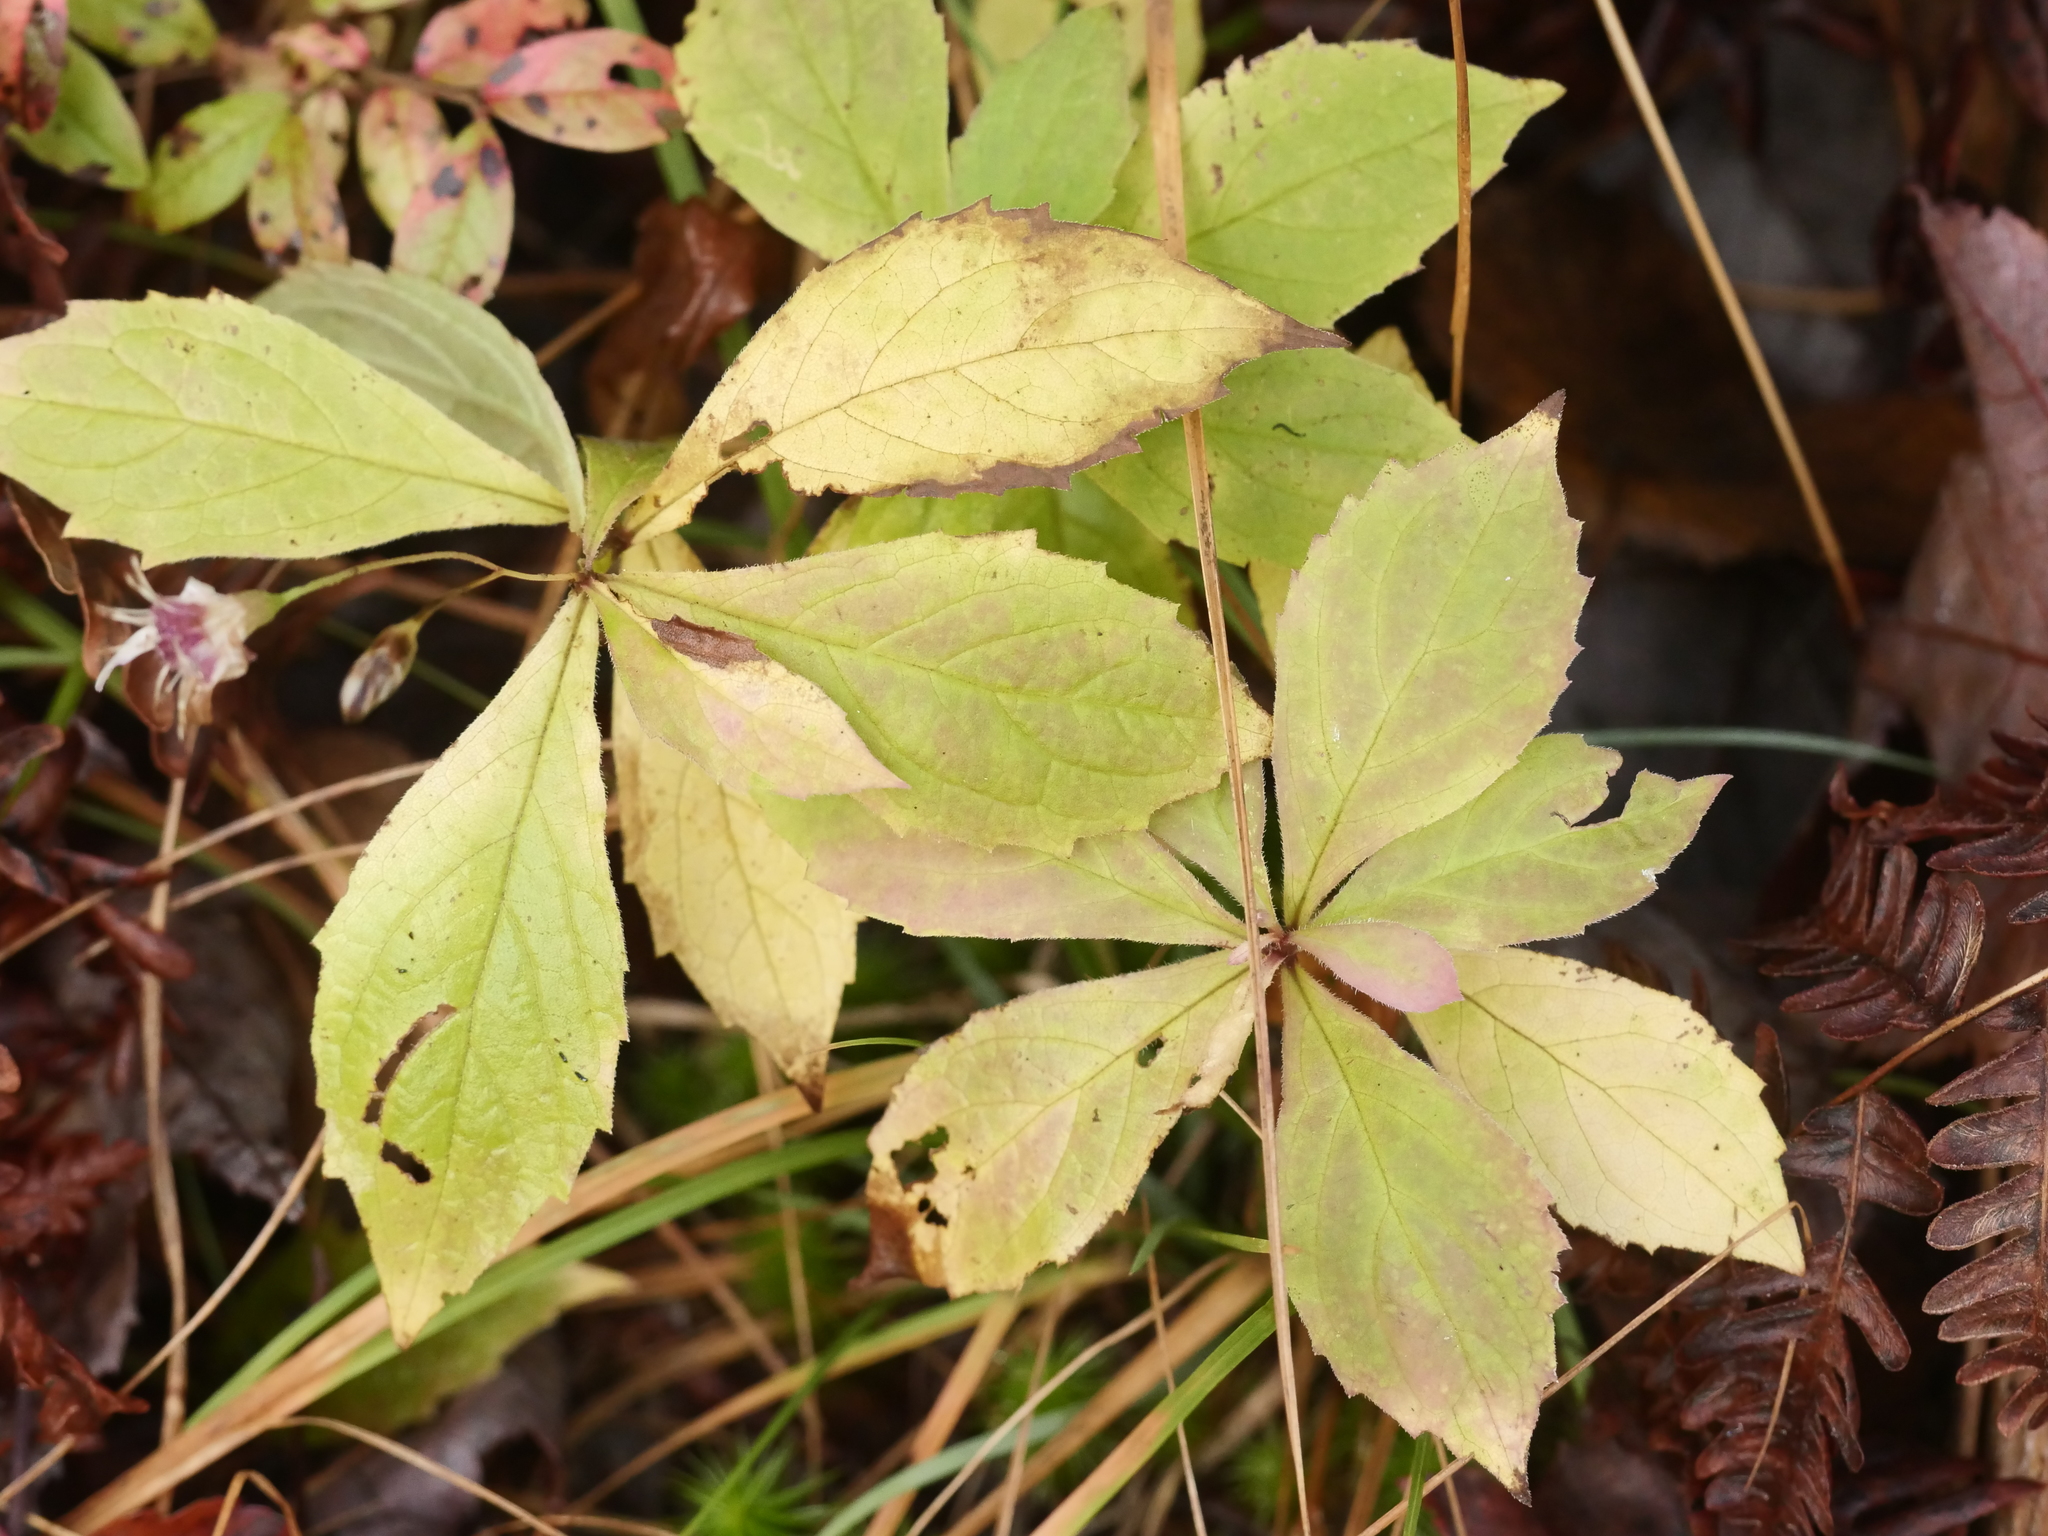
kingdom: Plantae
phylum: Tracheophyta
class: Magnoliopsida
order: Asterales
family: Asteraceae
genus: Oclemena
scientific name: Oclemena acuminata
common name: Mountain aster
